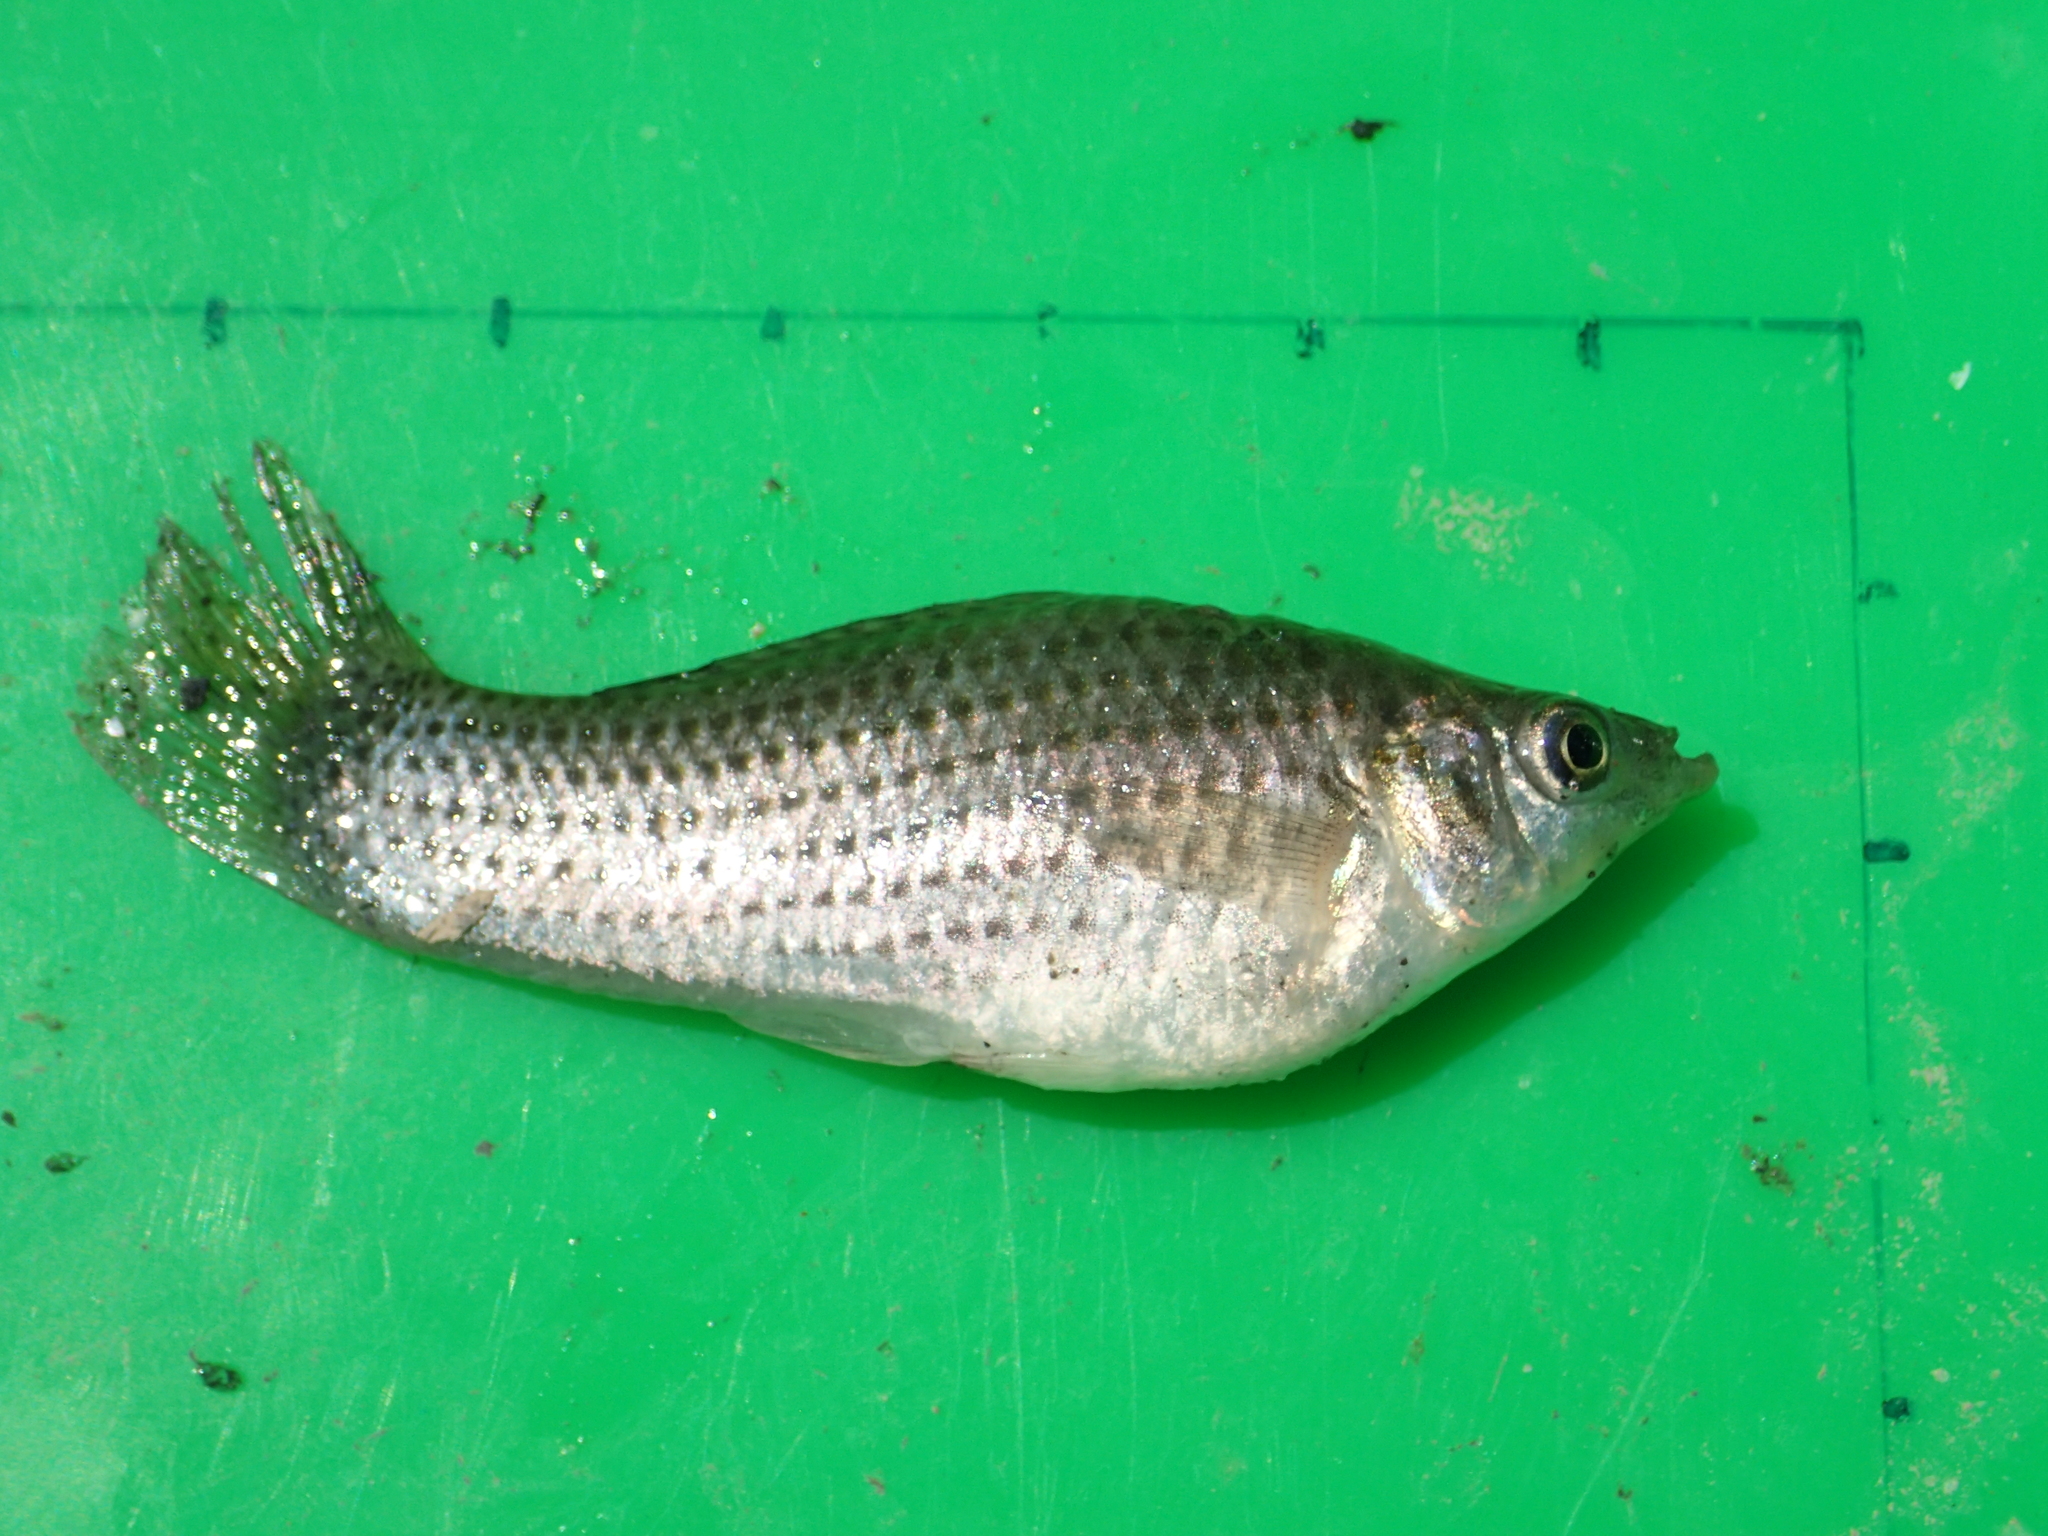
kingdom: Animalia
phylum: Chordata
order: Cyprinodontiformes
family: Poeciliidae
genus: Poecilia
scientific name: Poecilia velifera
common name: Sail-fin molly
